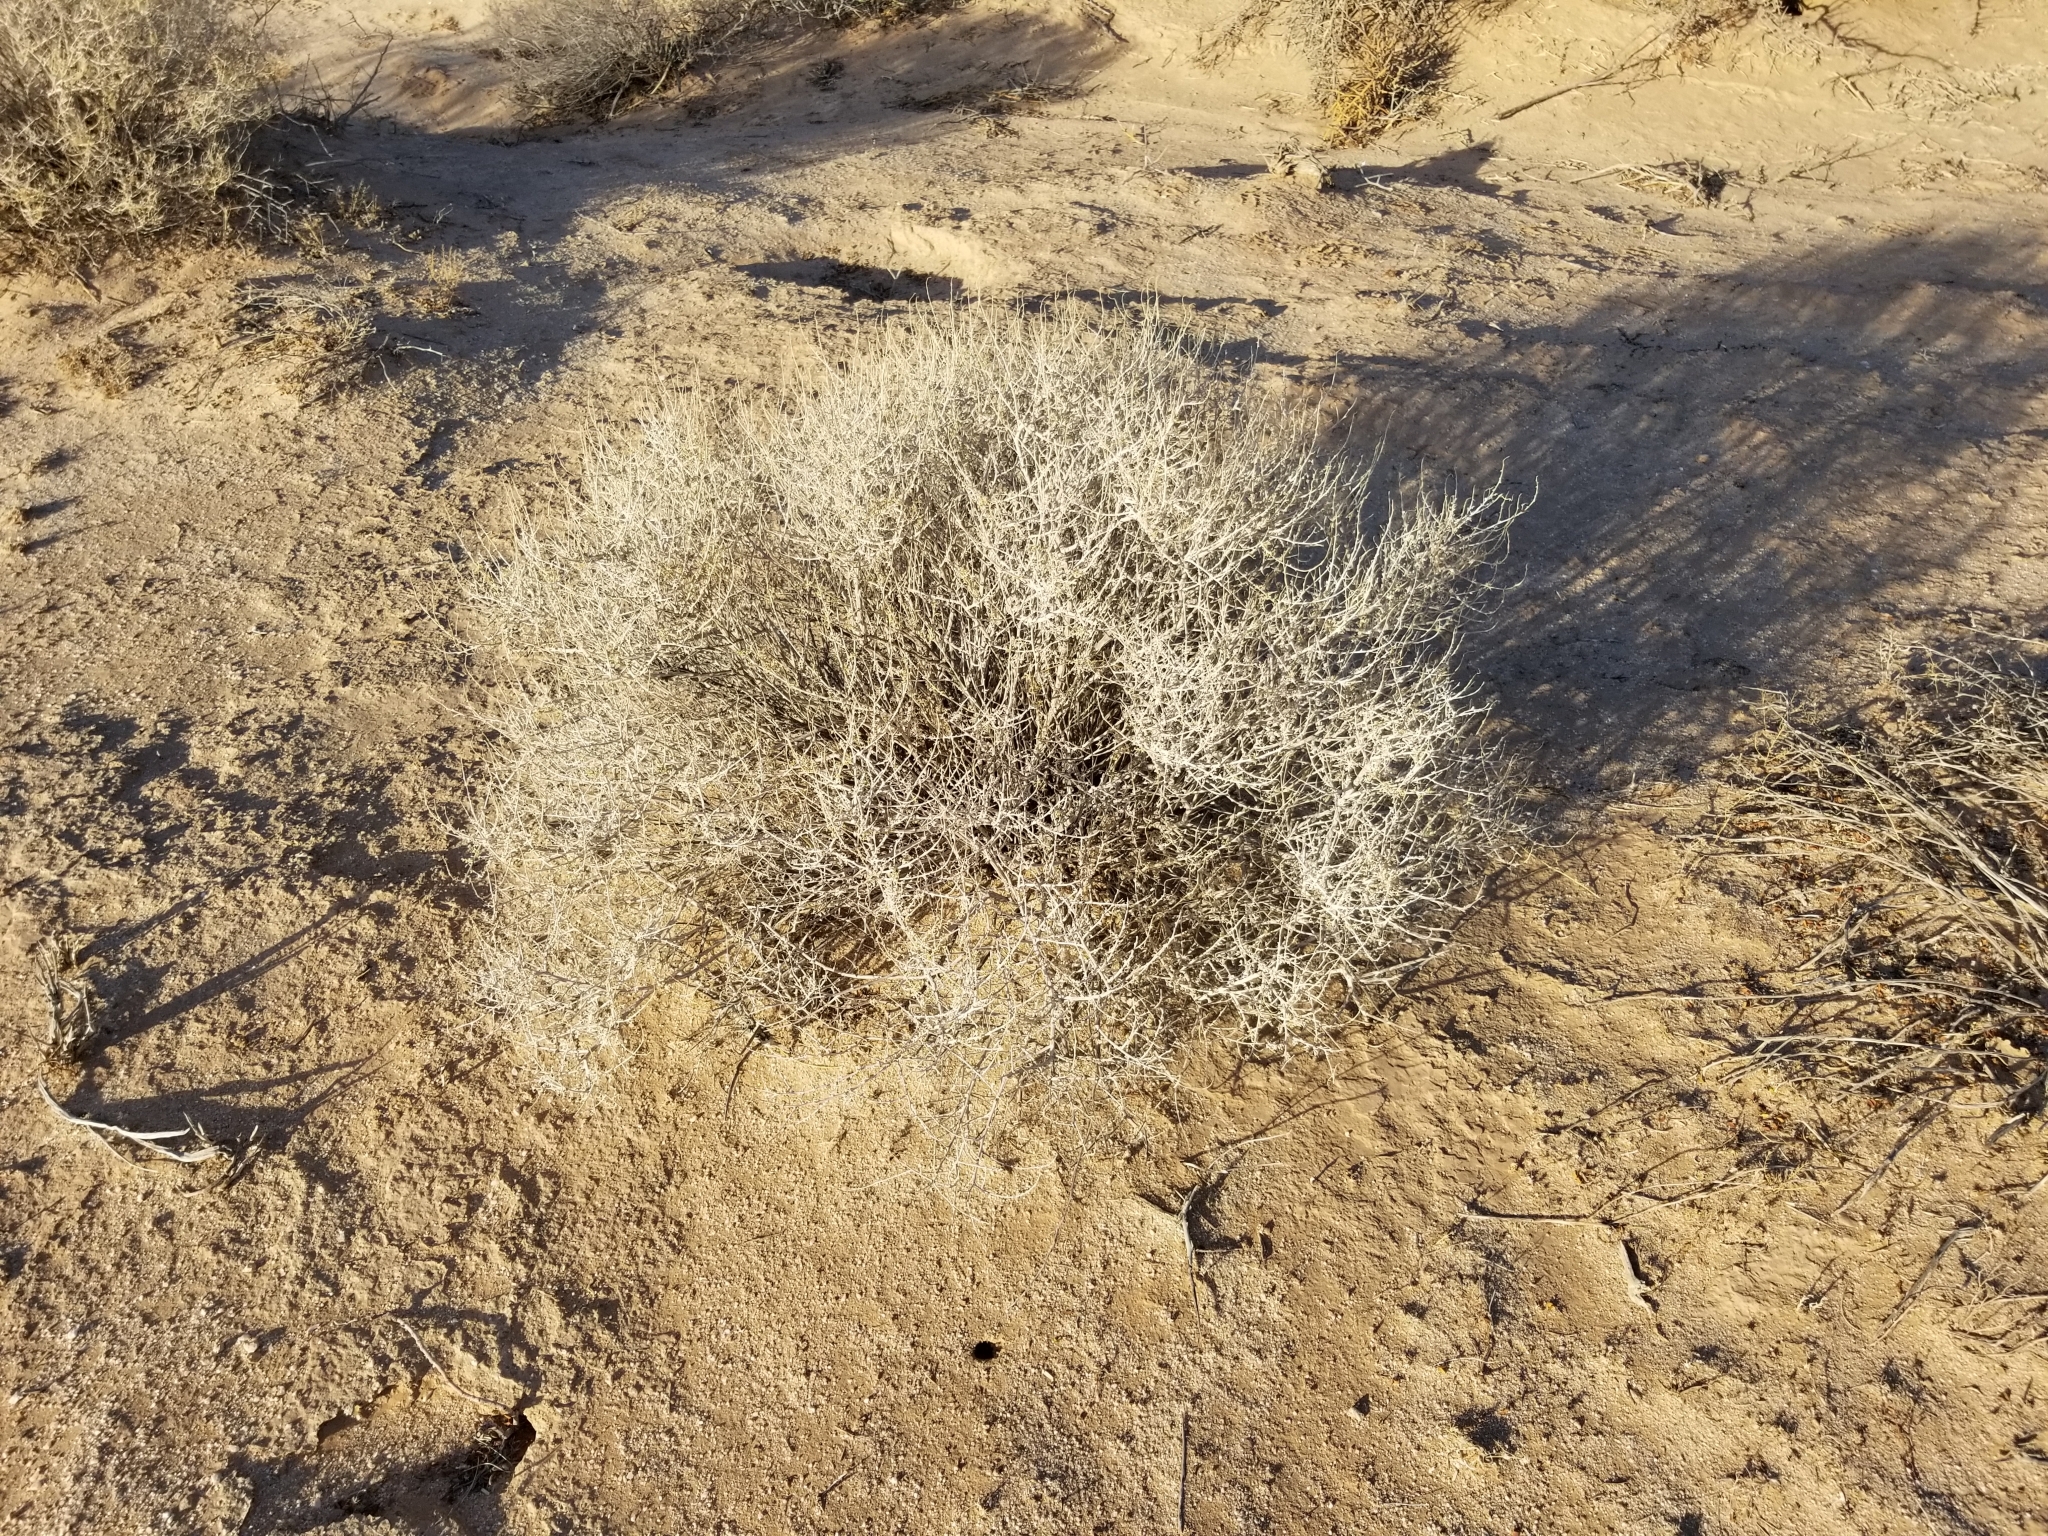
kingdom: Plantae
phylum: Tracheophyta
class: Magnoliopsida
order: Asterales
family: Asteraceae
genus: Ambrosia
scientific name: Ambrosia dumosa
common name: Bur-sage
